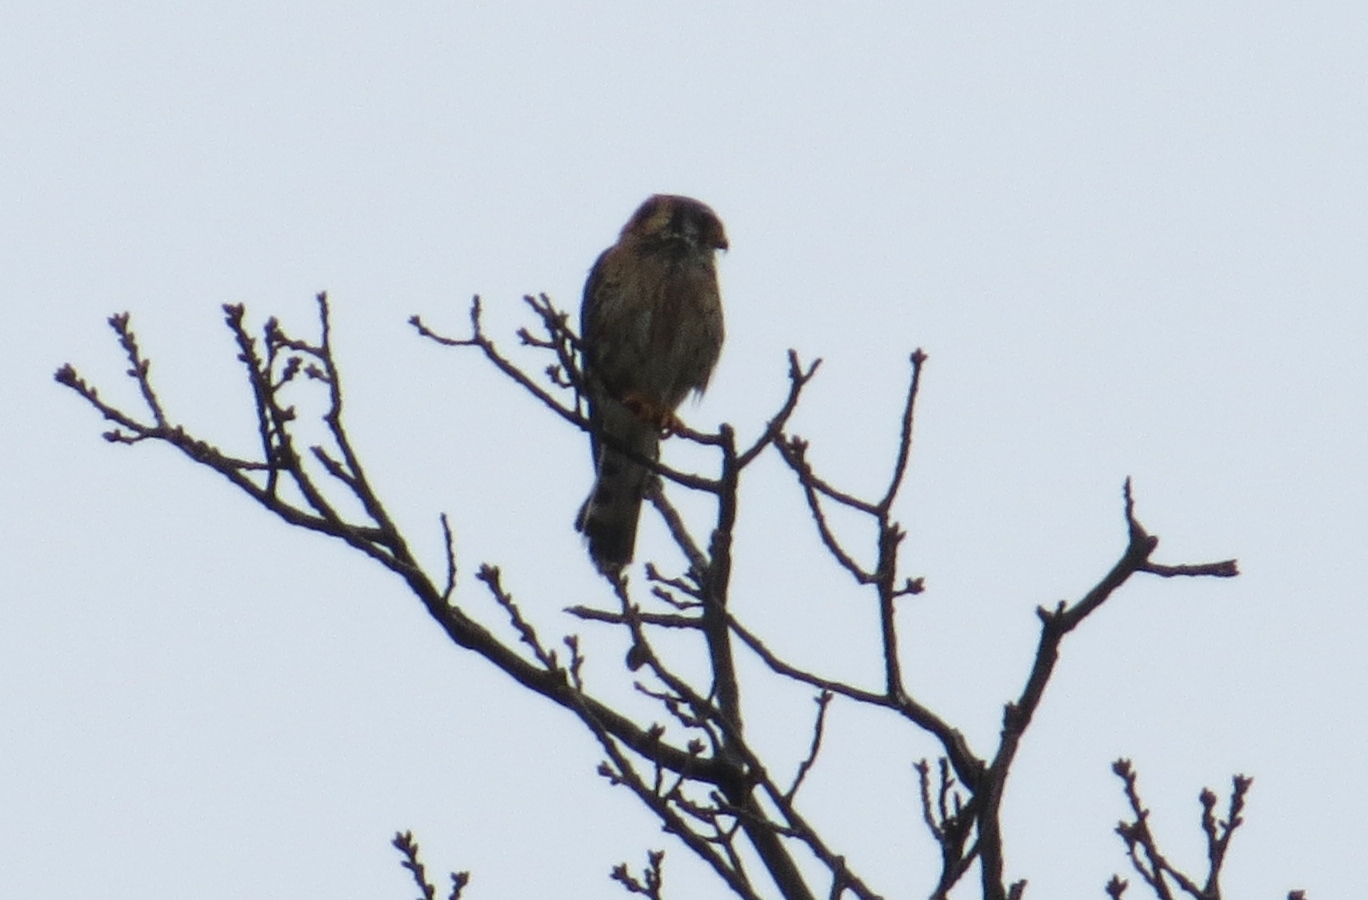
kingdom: Animalia
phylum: Chordata
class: Aves
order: Falconiformes
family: Falconidae
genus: Falco
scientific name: Falco sparverius
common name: American kestrel
